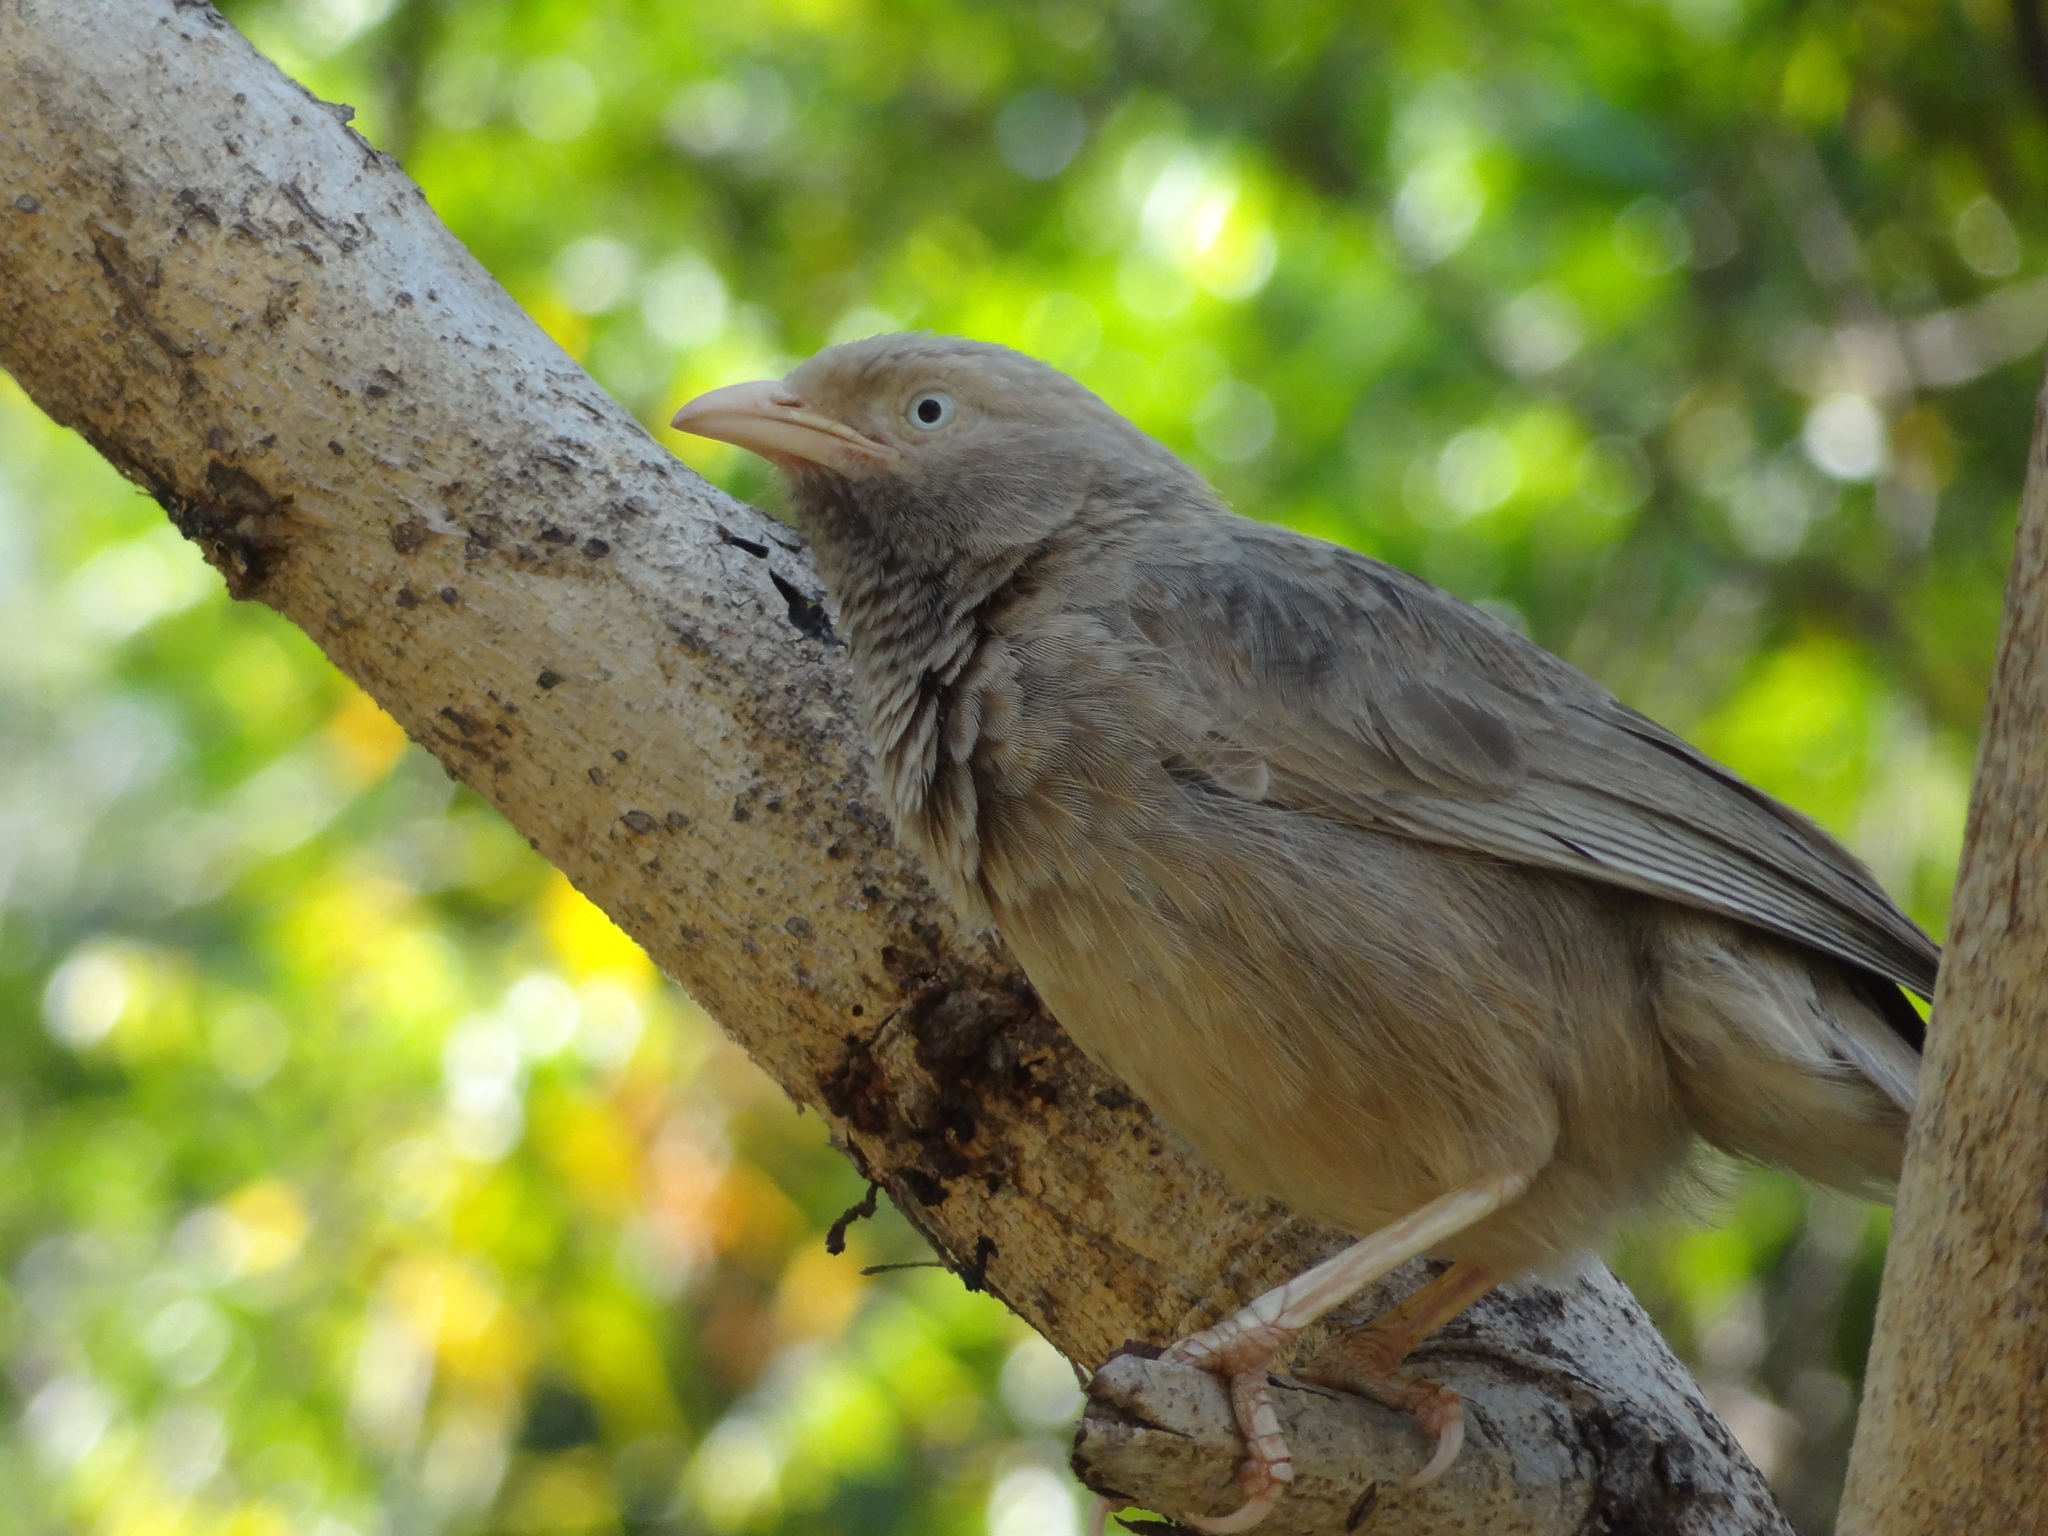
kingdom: Animalia
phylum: Chordata
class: Aves
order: Passeriformes
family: Leiothrichidae
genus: Turdoides
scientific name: Turdoides affinis
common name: Yellow-billed babbler
